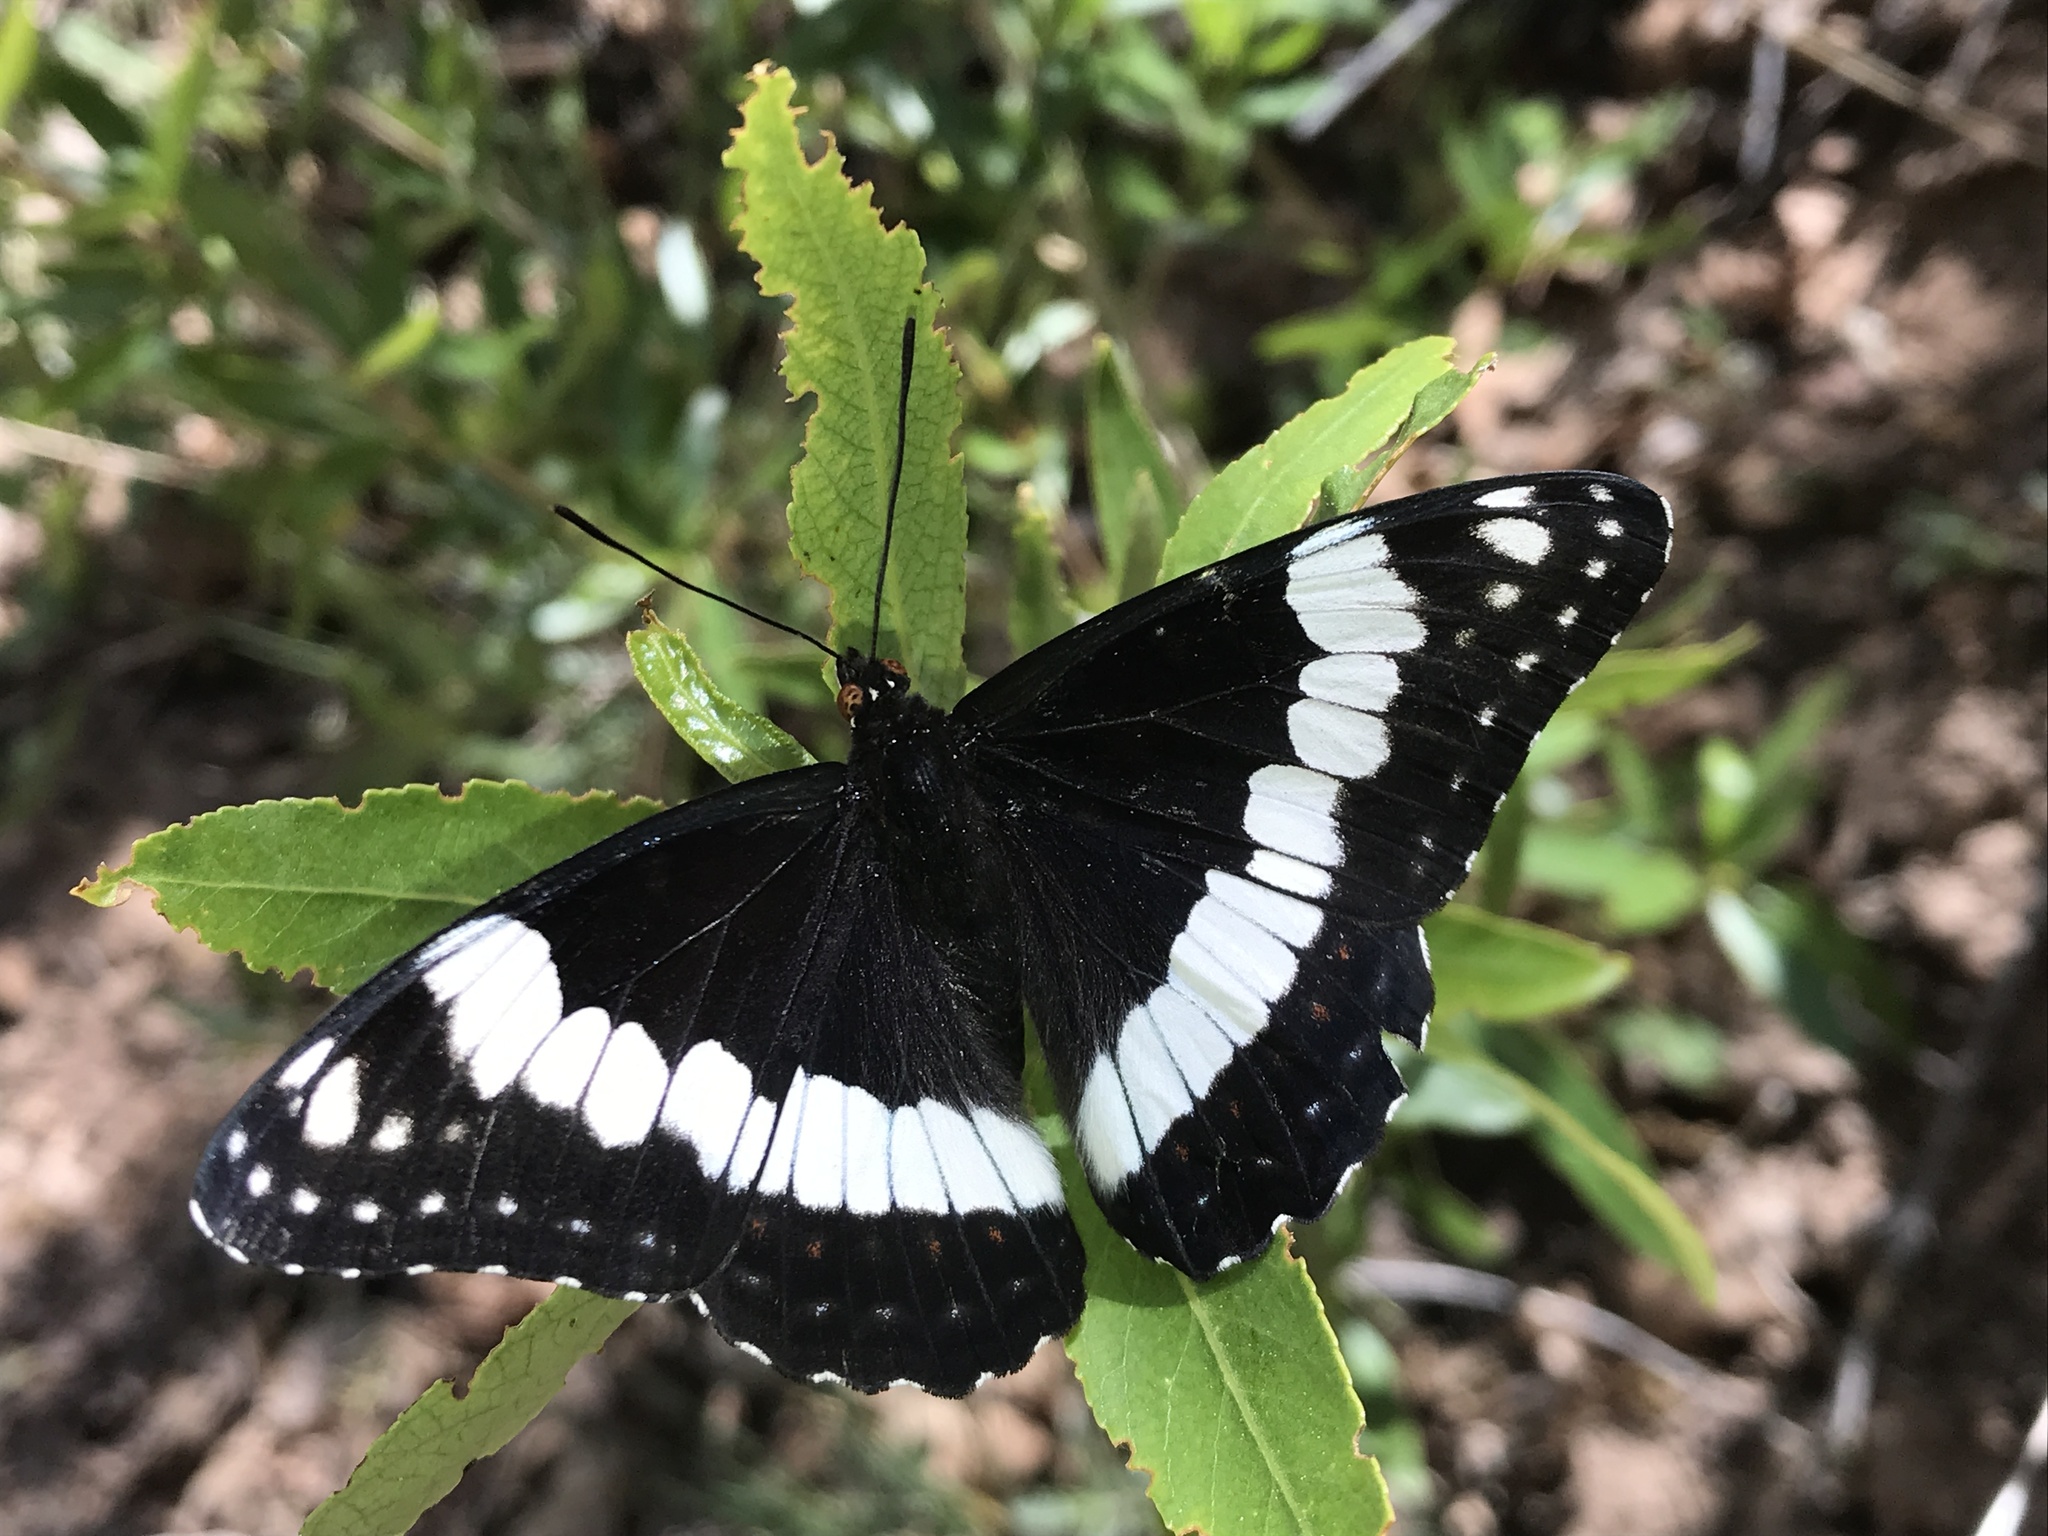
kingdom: Animalia
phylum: Arthropoda
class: Insecta
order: Lepidoptera
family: Nymphalidae
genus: Limenitis
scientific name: Limenitis weidemeyerii
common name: Weidemeyer's admiral
